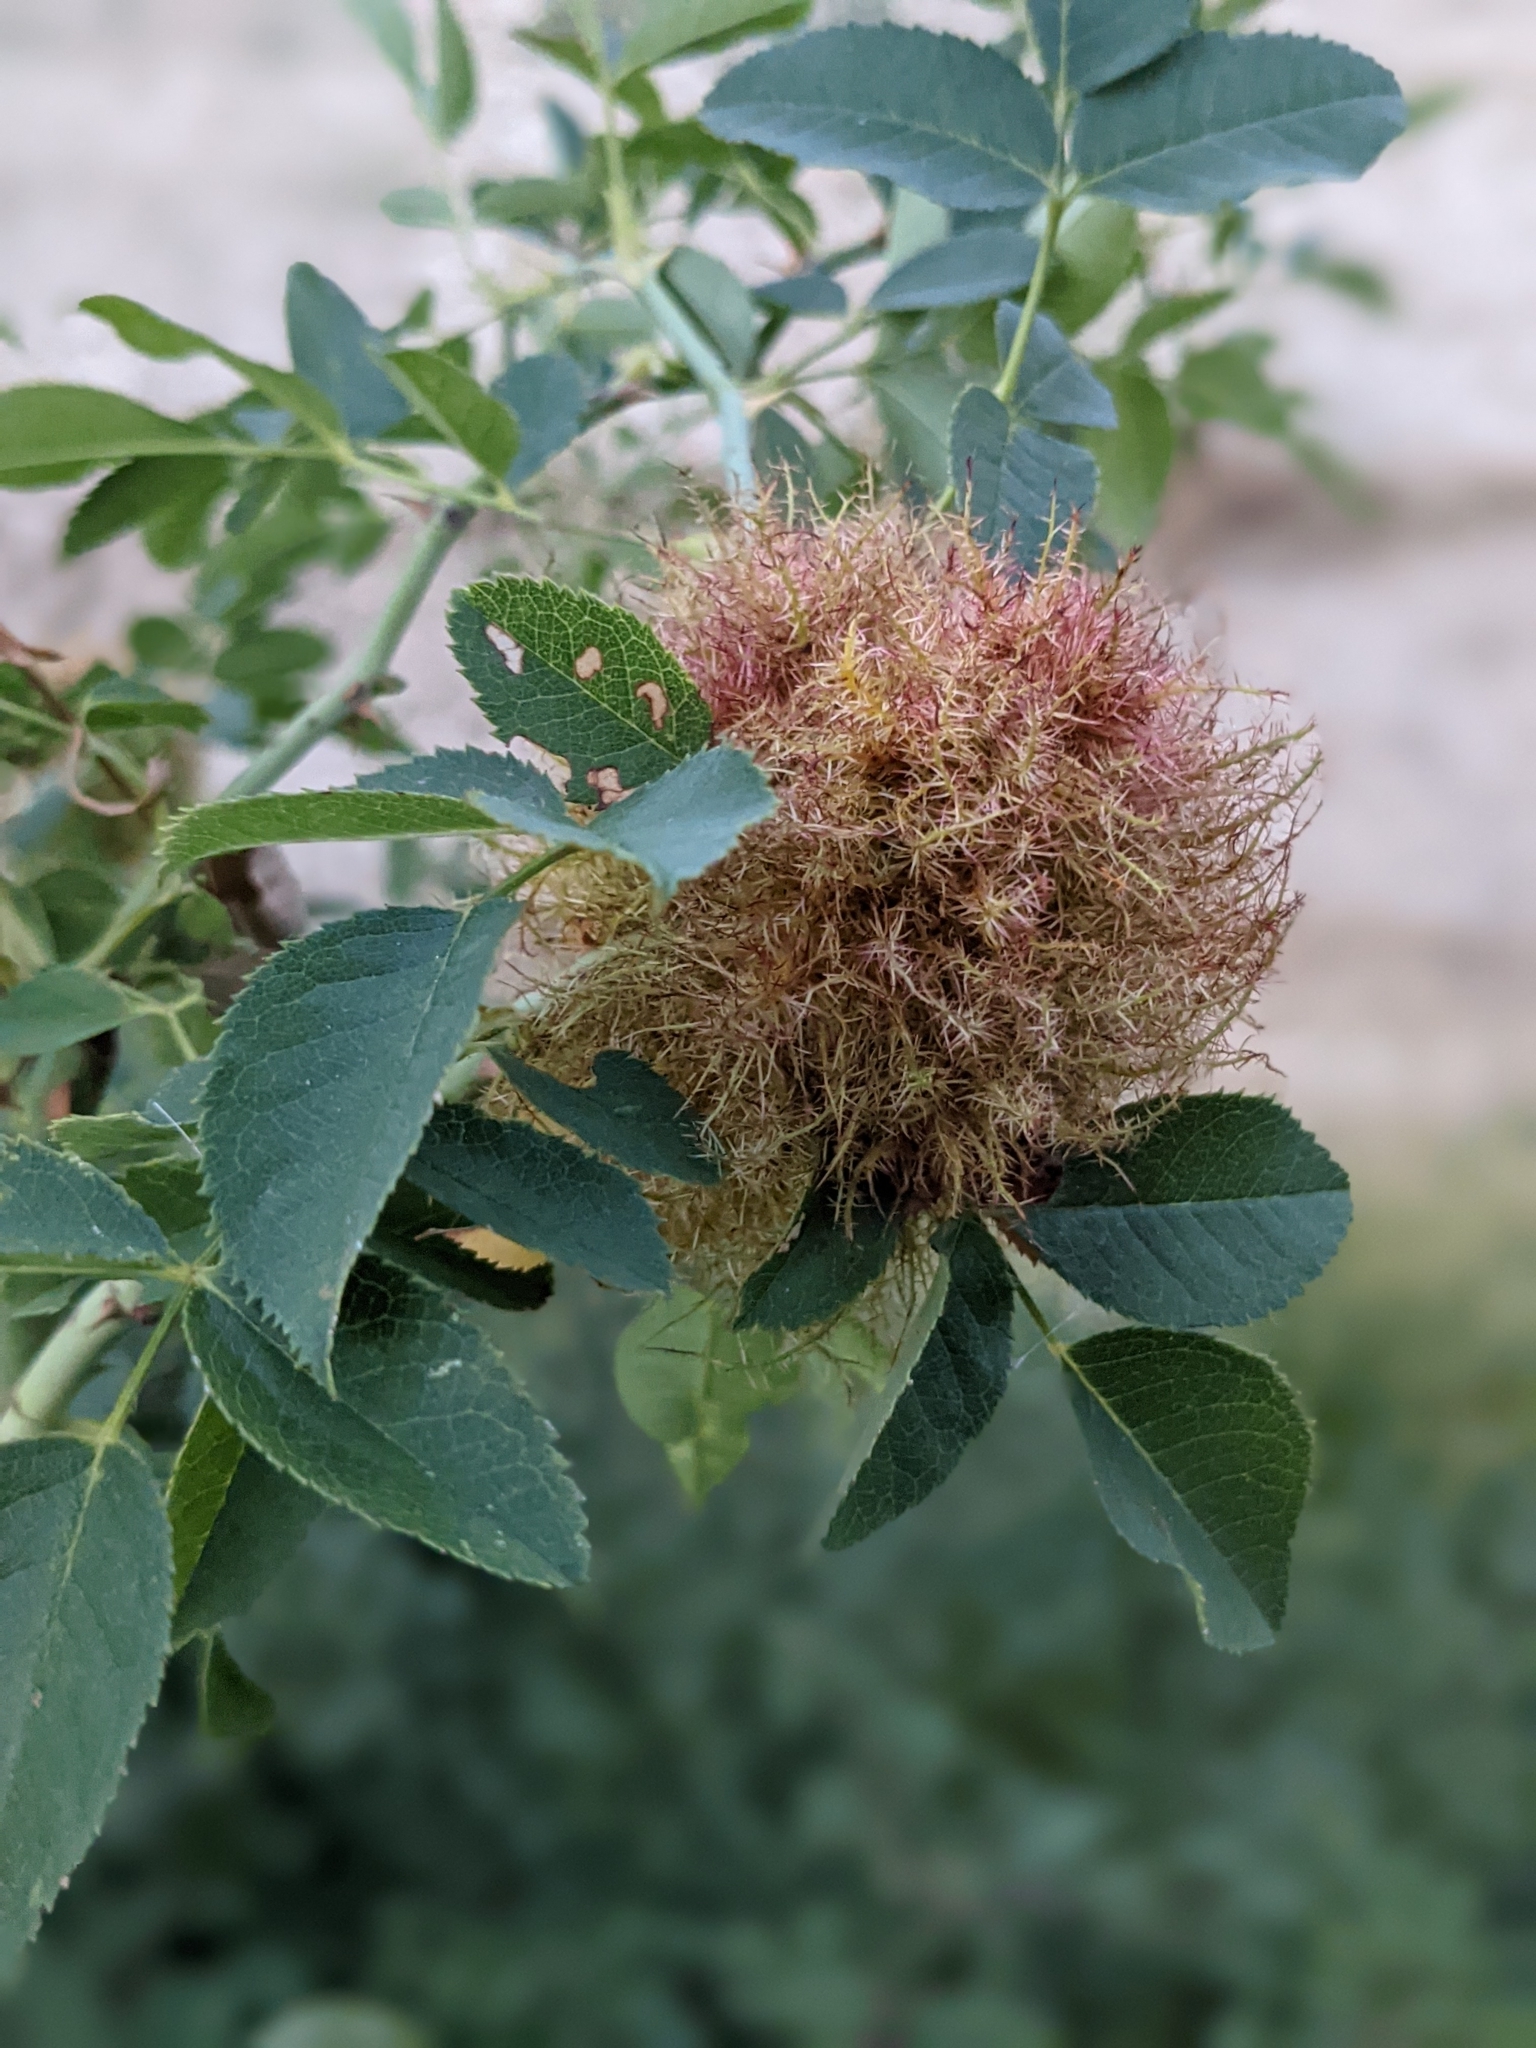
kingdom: Animalia
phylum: Arthropoda
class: Insecta
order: Hymenoptera
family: Cynipidae
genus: Diplolepis
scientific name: Diplolepis rosae
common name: Bedeguar gall
